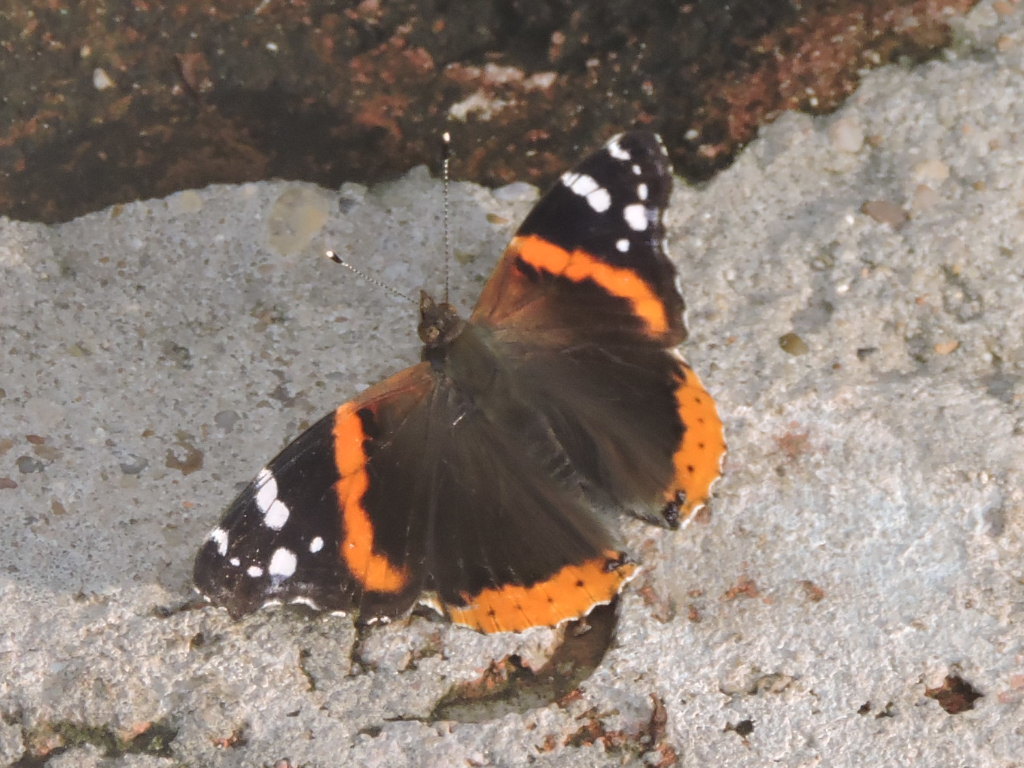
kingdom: Animalia
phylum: Arthropoda
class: Insecta
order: Lepidoptera
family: Nymphalidae
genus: Vanessa
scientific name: Vanessa atalanta
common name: Red admiral
